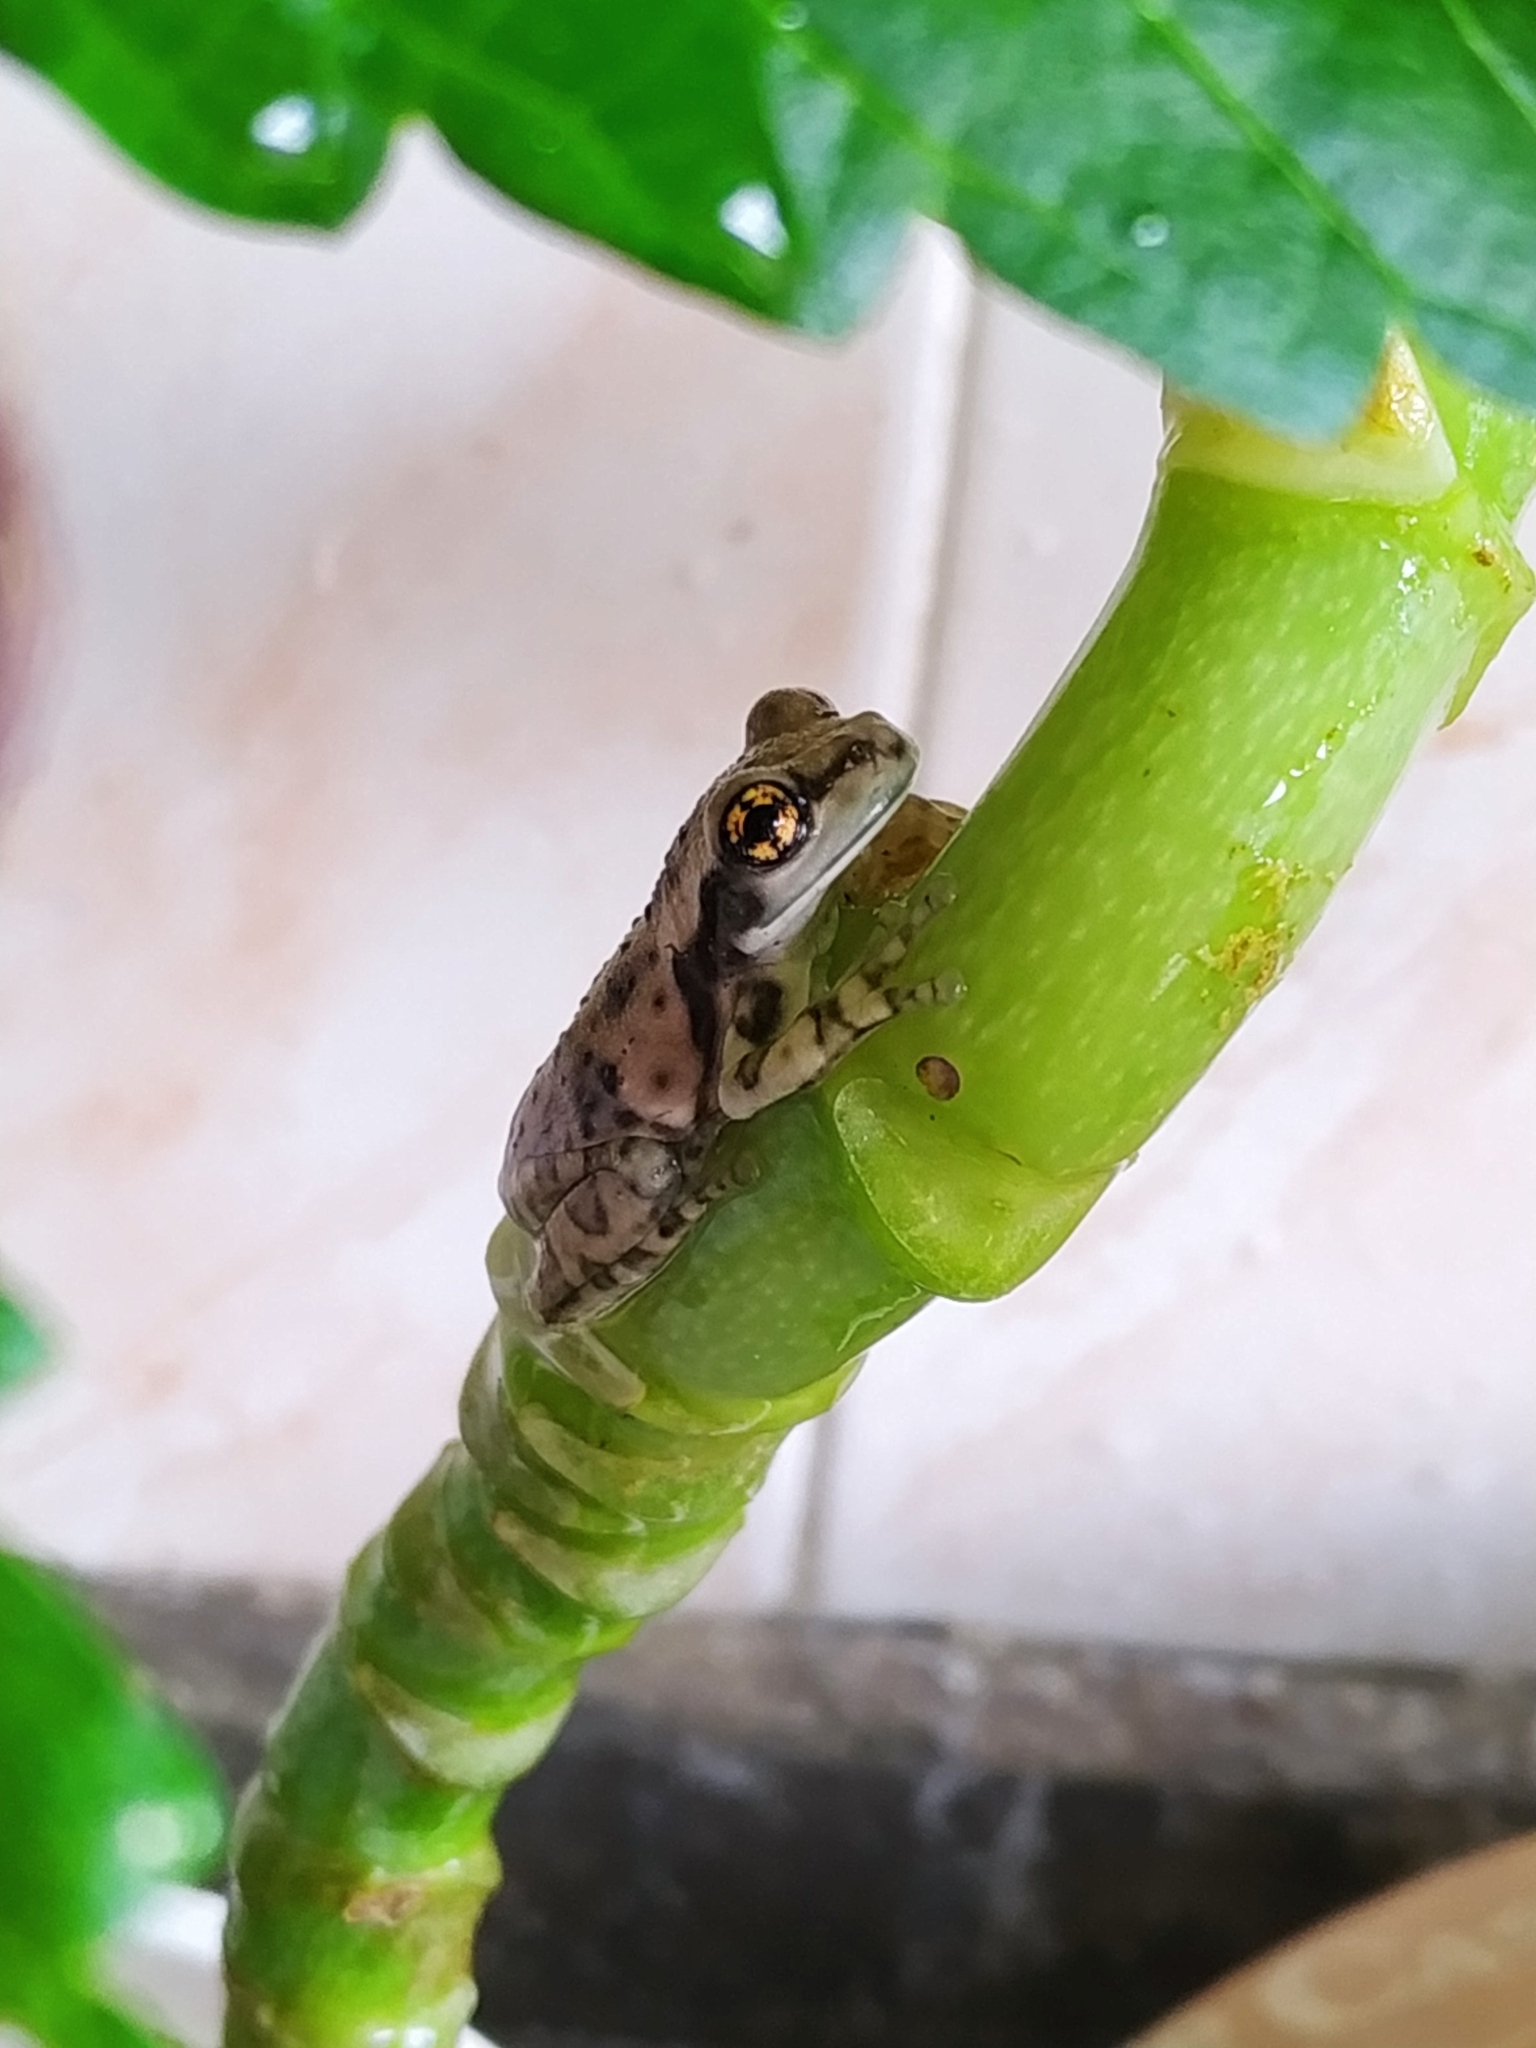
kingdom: Animalia
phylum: Chordata
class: Amphibia
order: Anura
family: Hylidae
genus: Trachycephalus
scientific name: Trachycephalus typhonius
